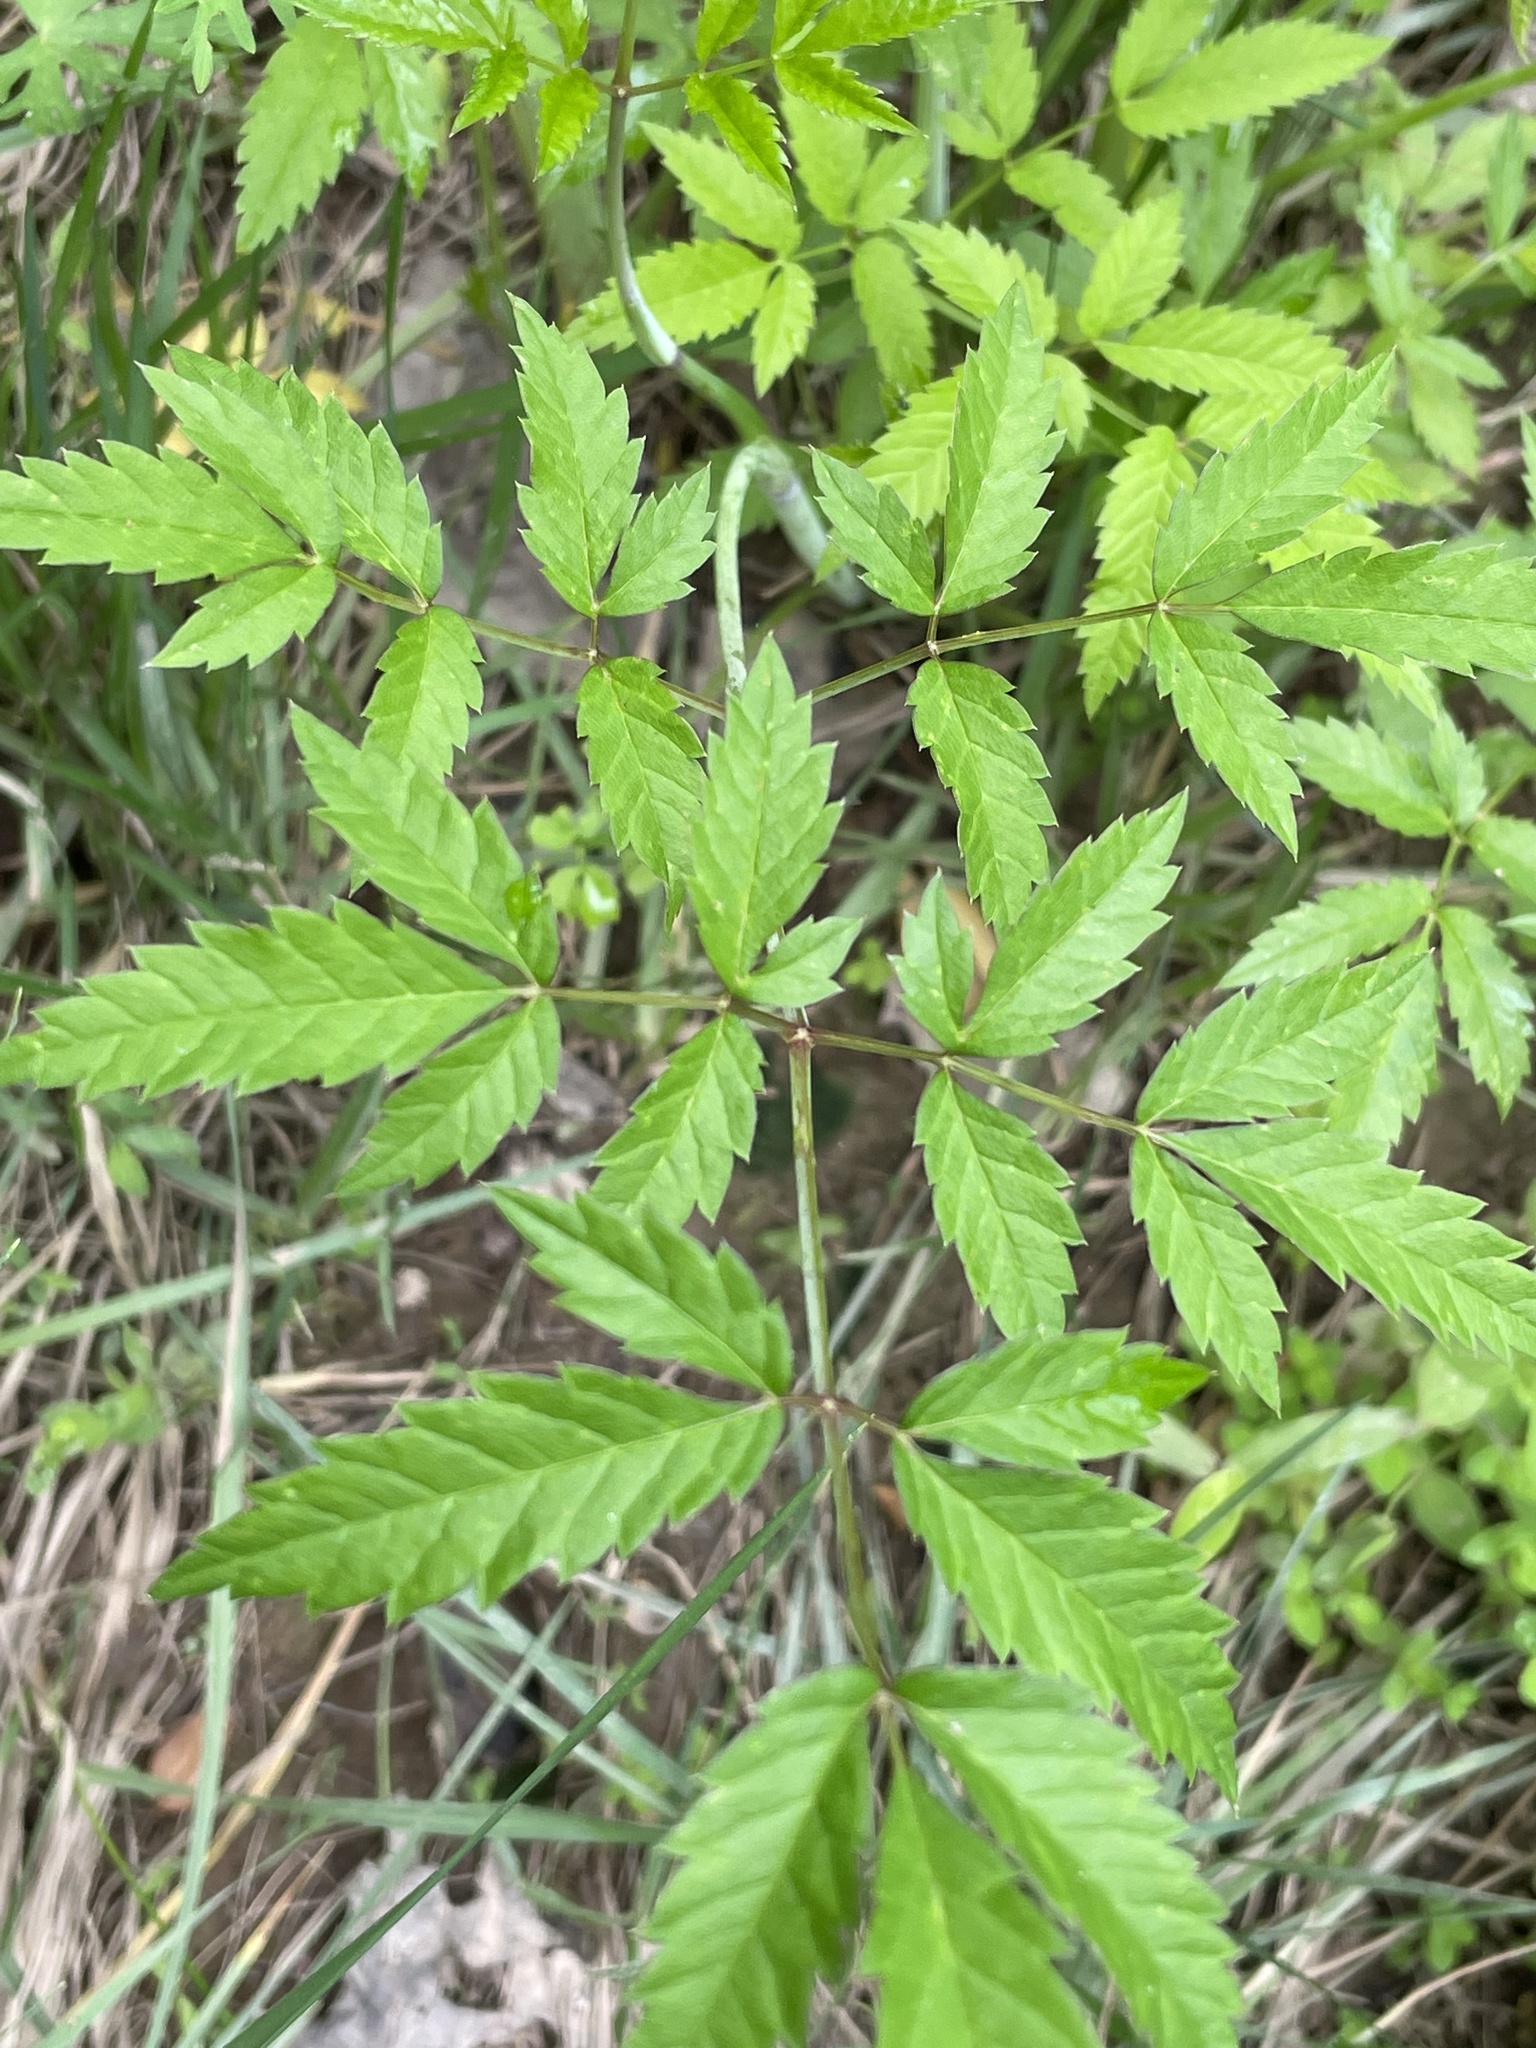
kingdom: Plantae
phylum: Tracheophyta
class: Magnoliopsida
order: Apiales
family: Apiaceae
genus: Cicuta
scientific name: Cicuta maculata
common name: Spotted cowbane
